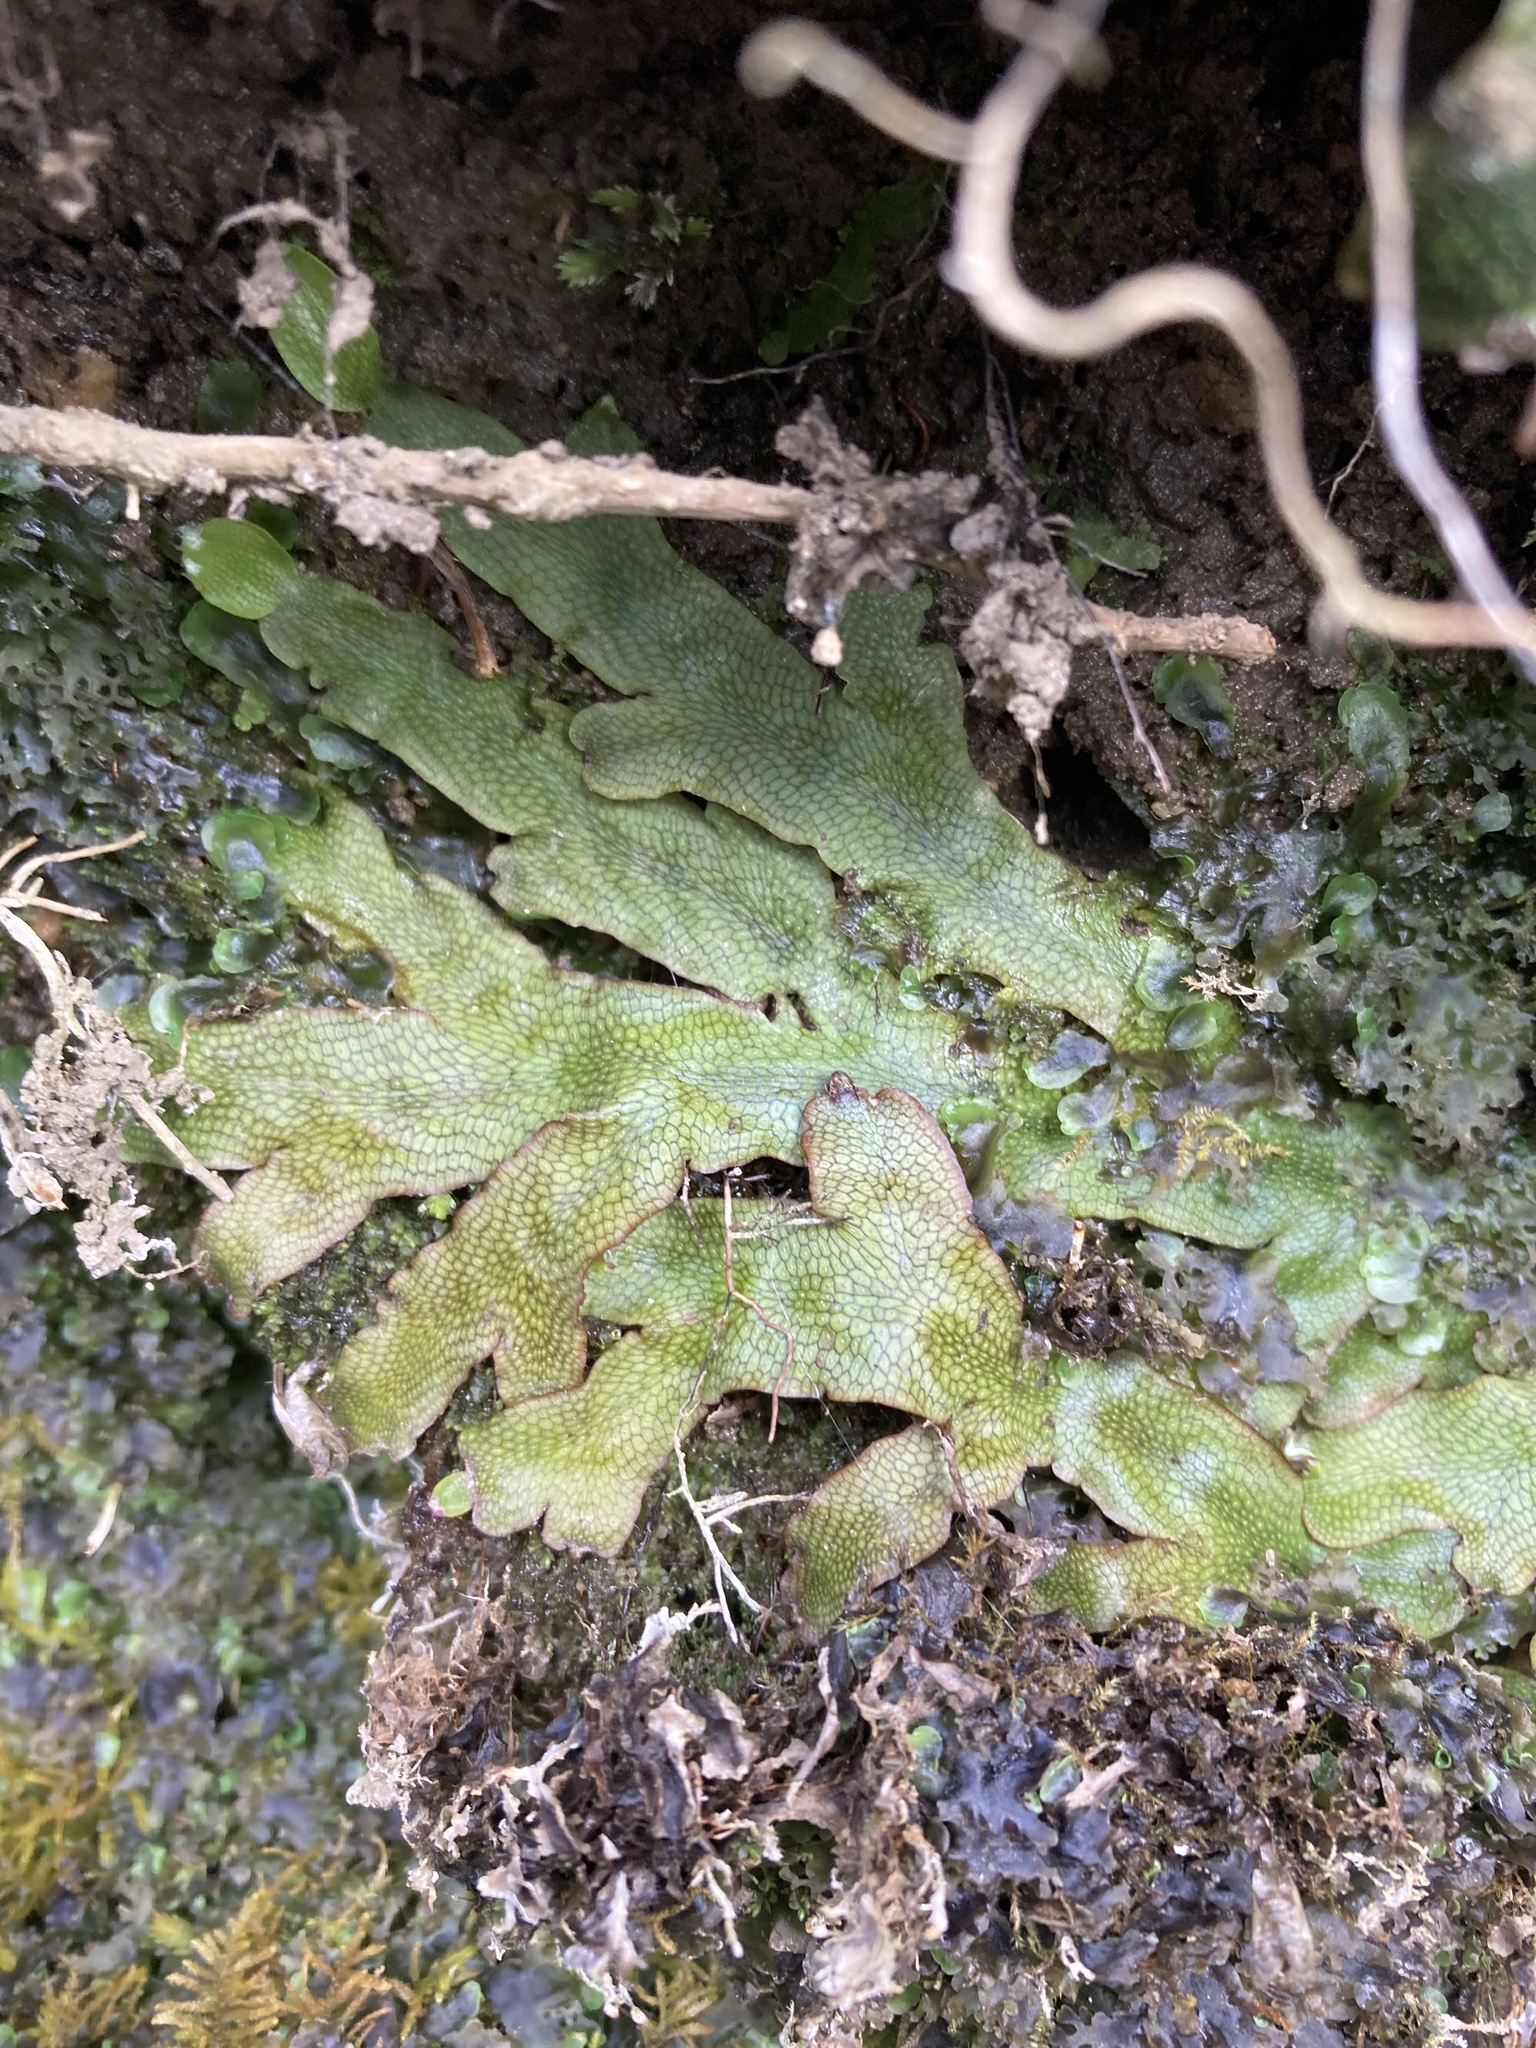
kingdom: Plantae
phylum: Marchantiophyta
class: Marchantiopsida
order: Marchantiales
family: Conocephalaceae
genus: Conocephalum
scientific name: Conocephalum salebrosum
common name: Cat-tongue liverwort
